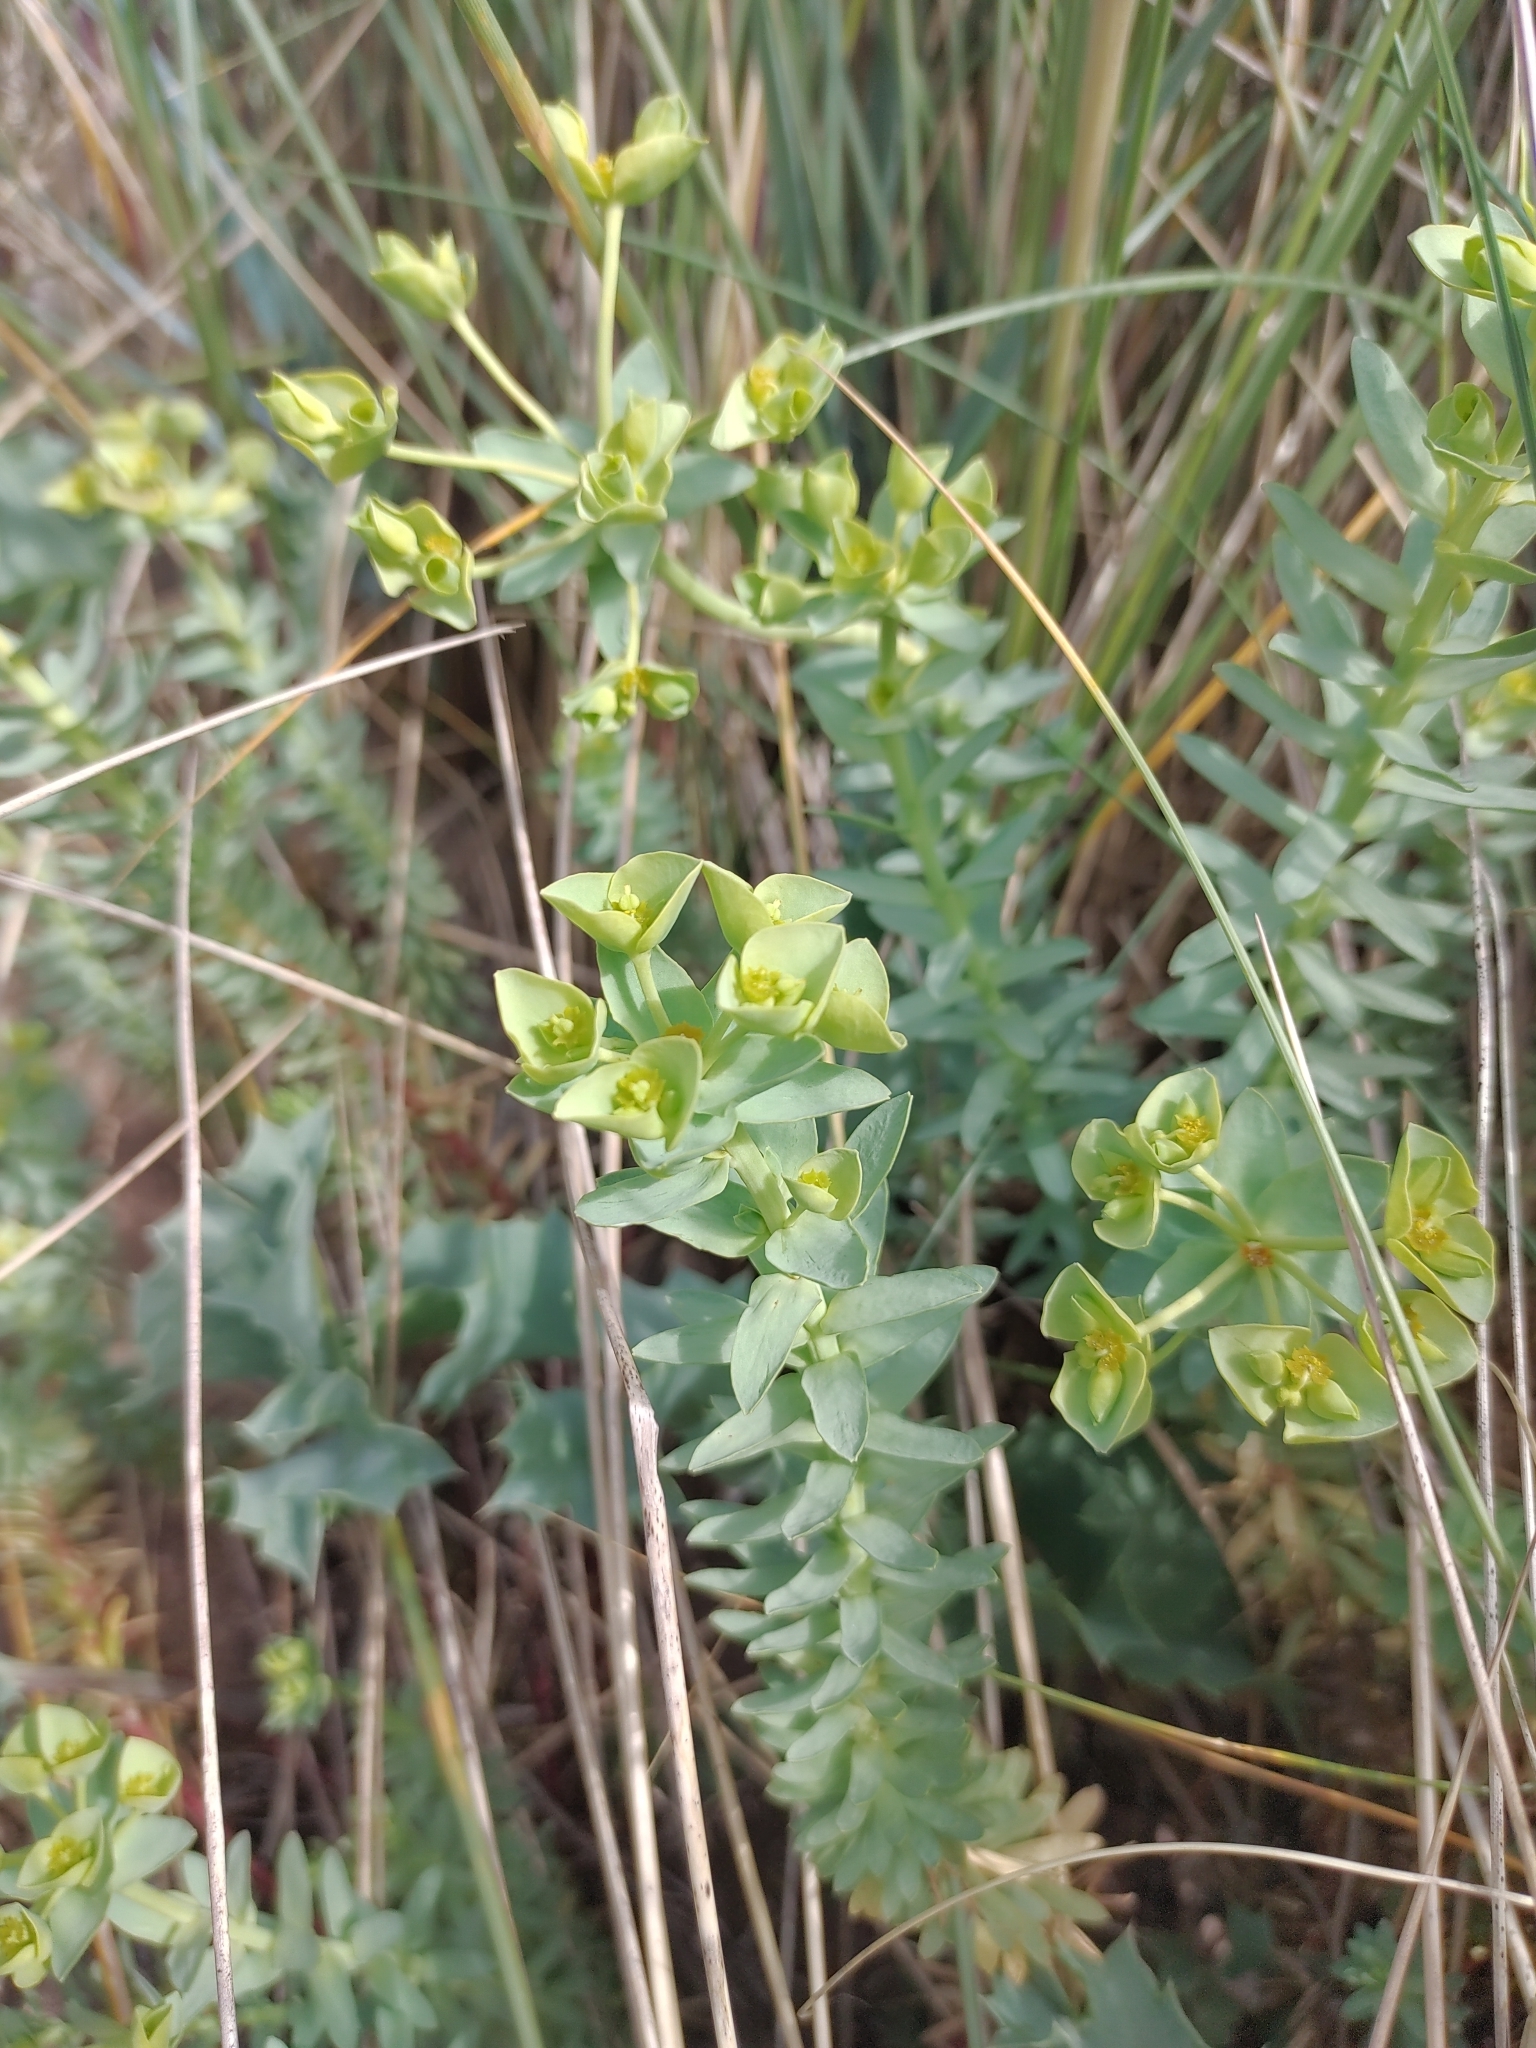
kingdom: Plantae
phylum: Tracheophyta
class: Magnoliopsida
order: Malpighiales
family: Euphorbiaceae
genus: Euphorbia
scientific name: Euphorbia paralias
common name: Sea spurge
